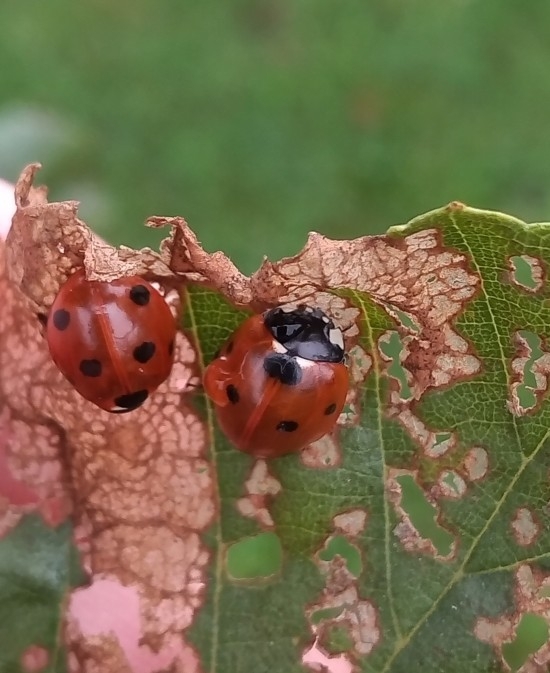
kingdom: Animalia
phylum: Arthropoda
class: Insecta
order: Coleoptera
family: Coccinellidae
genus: Coccinella
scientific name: Coccinella septempunctata
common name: Sevenspotted lady beetle
